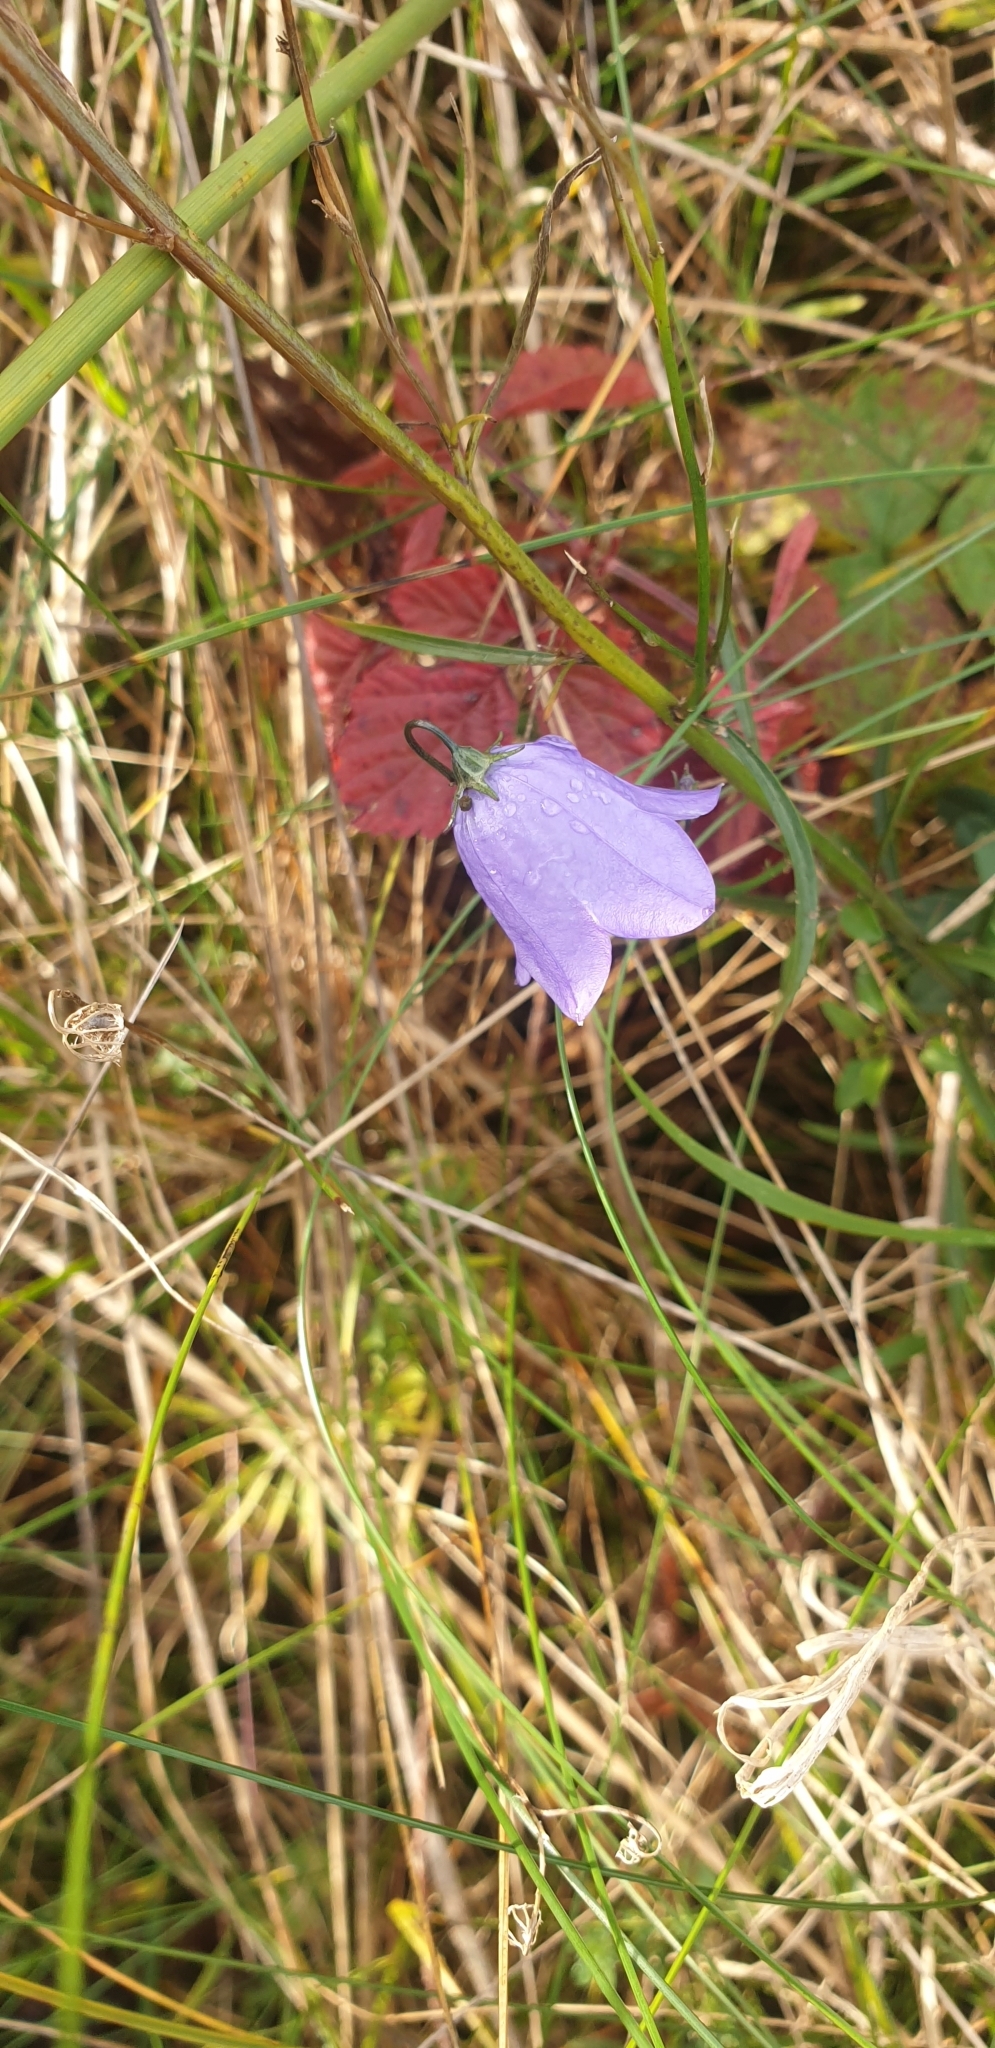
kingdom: Plantae
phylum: Tracheophyta
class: Magnoliopsida
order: Asterales
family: Campanulaceae
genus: Campanula
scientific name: Campanula rotundifolia
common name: Harebell
